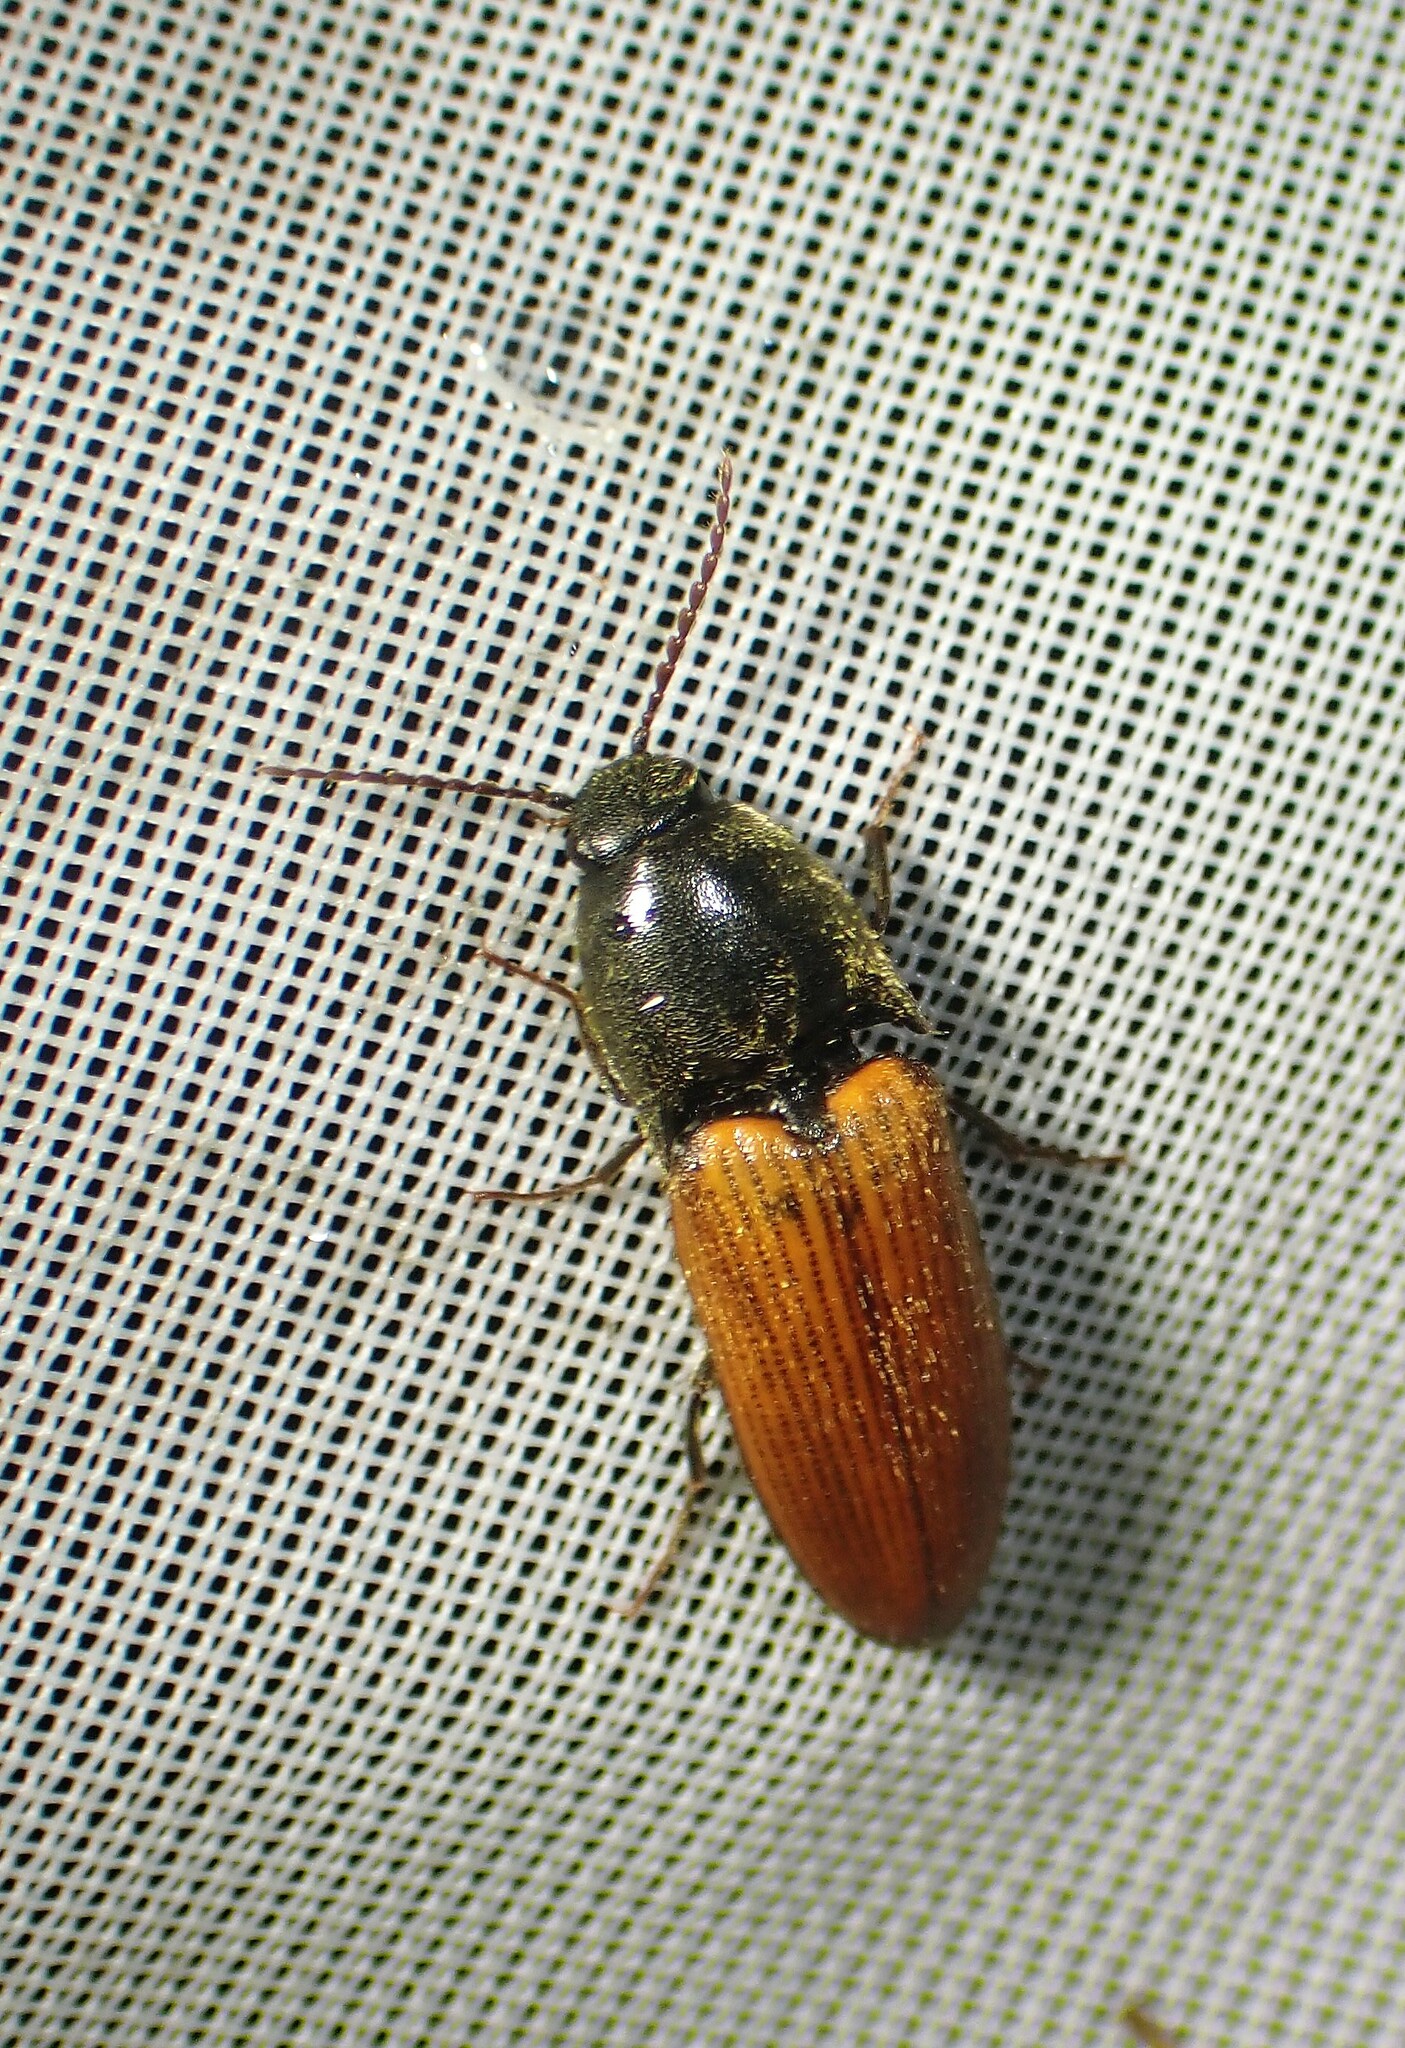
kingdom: Animalia
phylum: Arthropoda
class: Insecta
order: Coleoptera
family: Elateridae
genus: Ampedus
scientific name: Ampedus vitiosus
